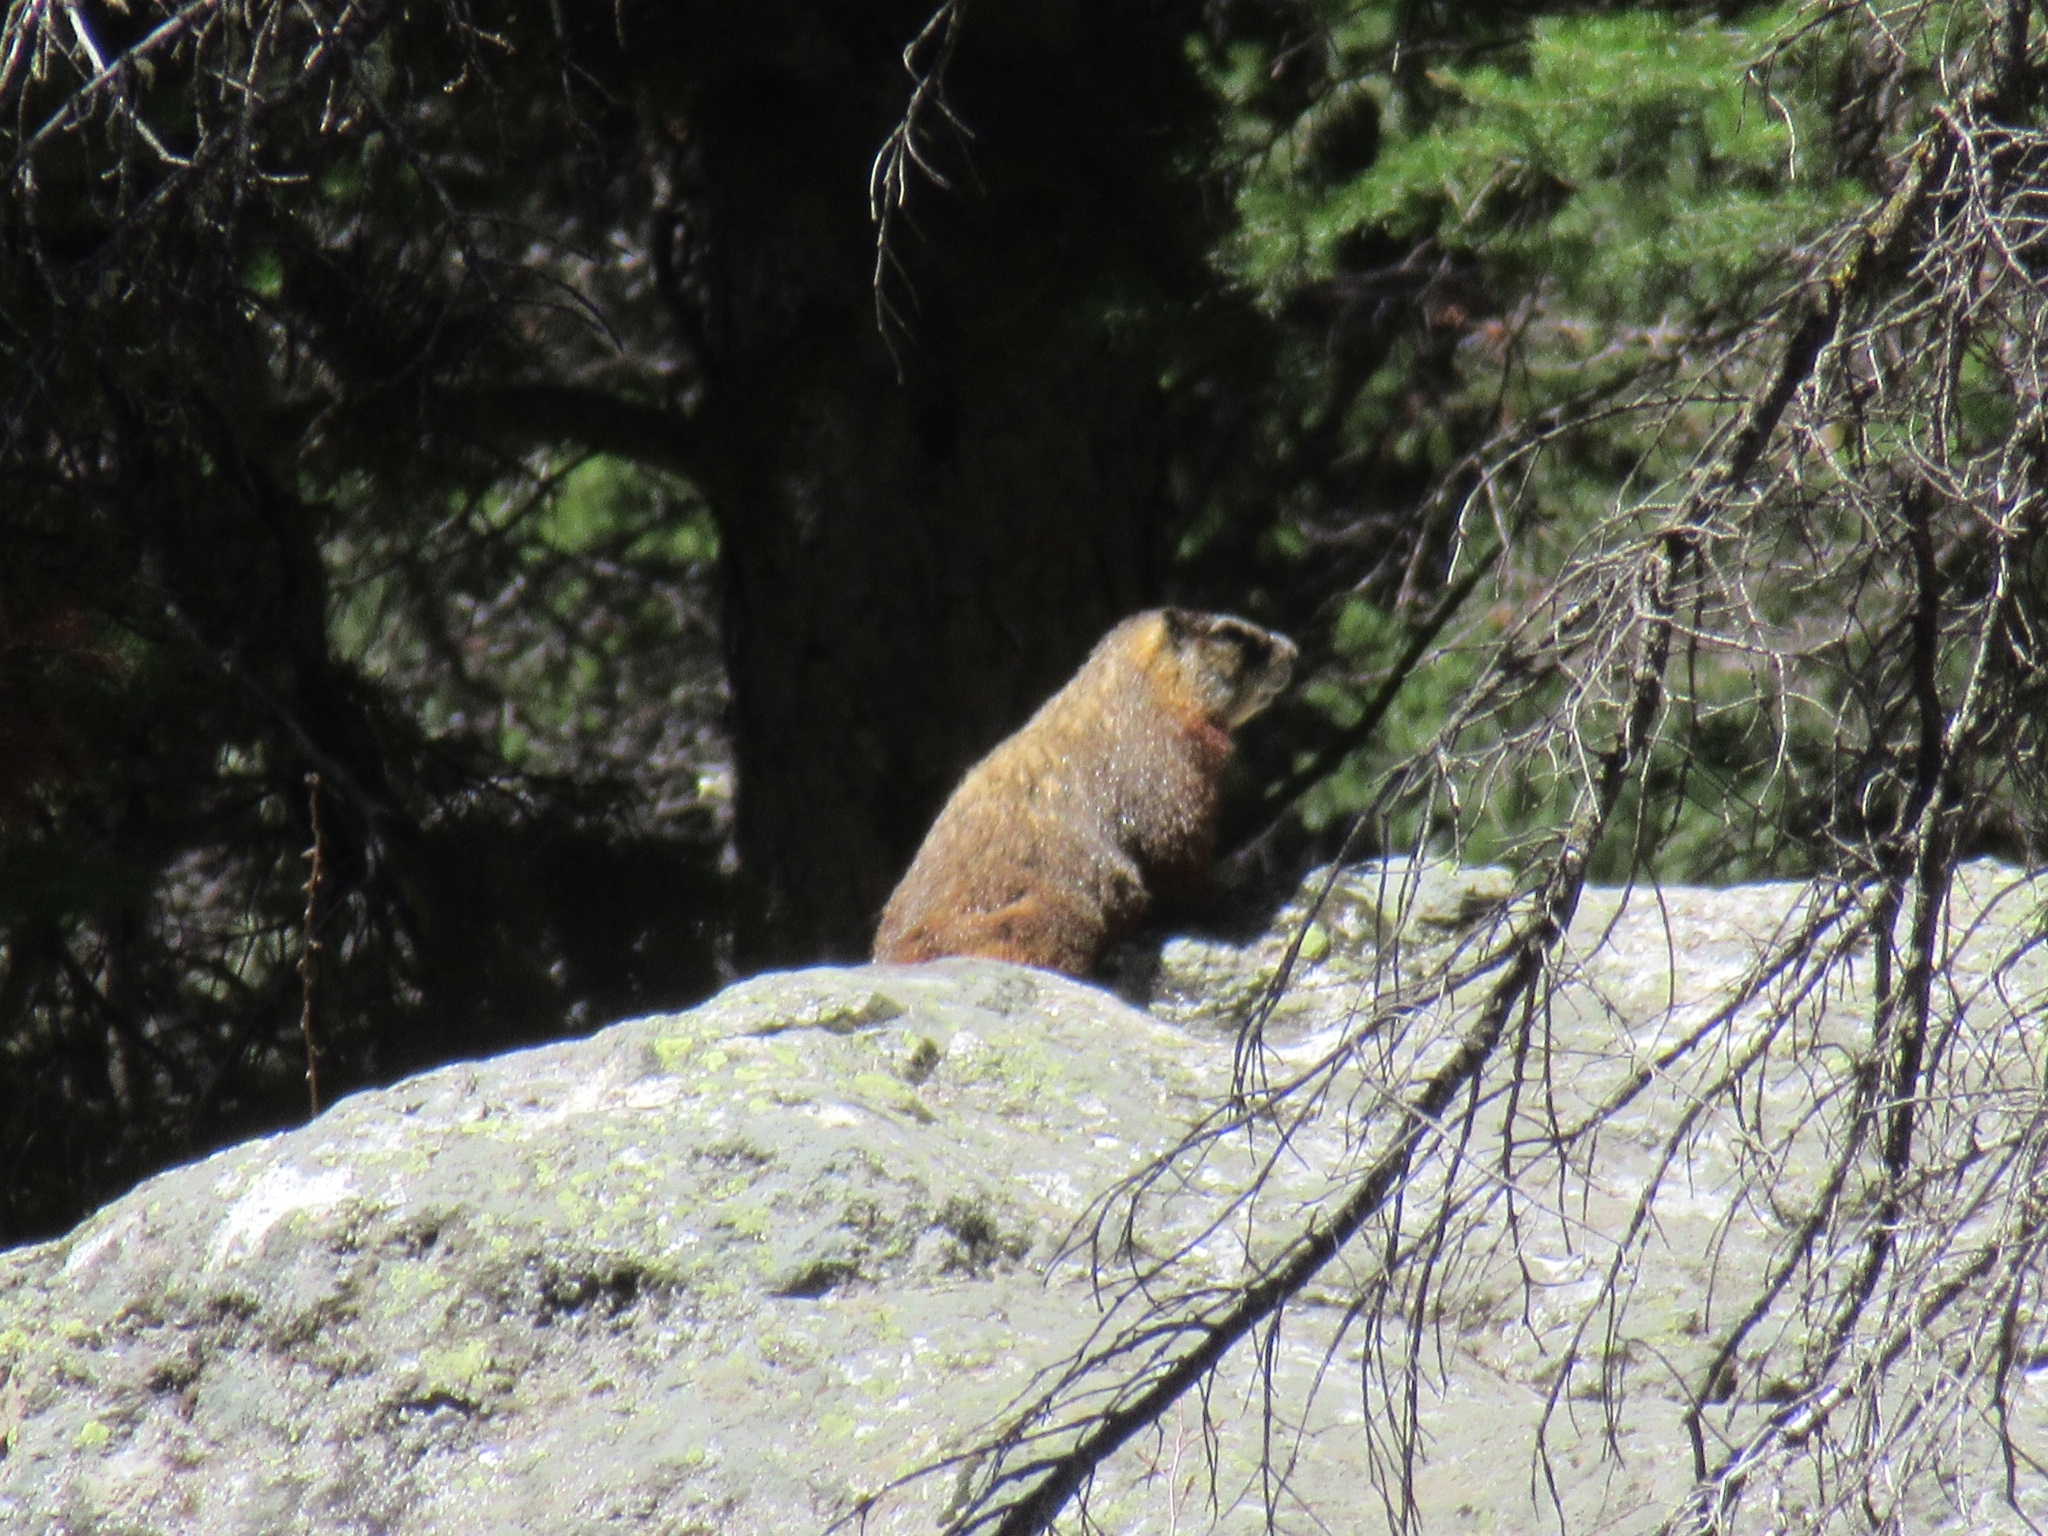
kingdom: Animalia
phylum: Chordata
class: Mammalia
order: Rodentia
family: Sciuridae
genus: Marmota
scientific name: Marmota flaviventris
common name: Yellow-bellied marmot
